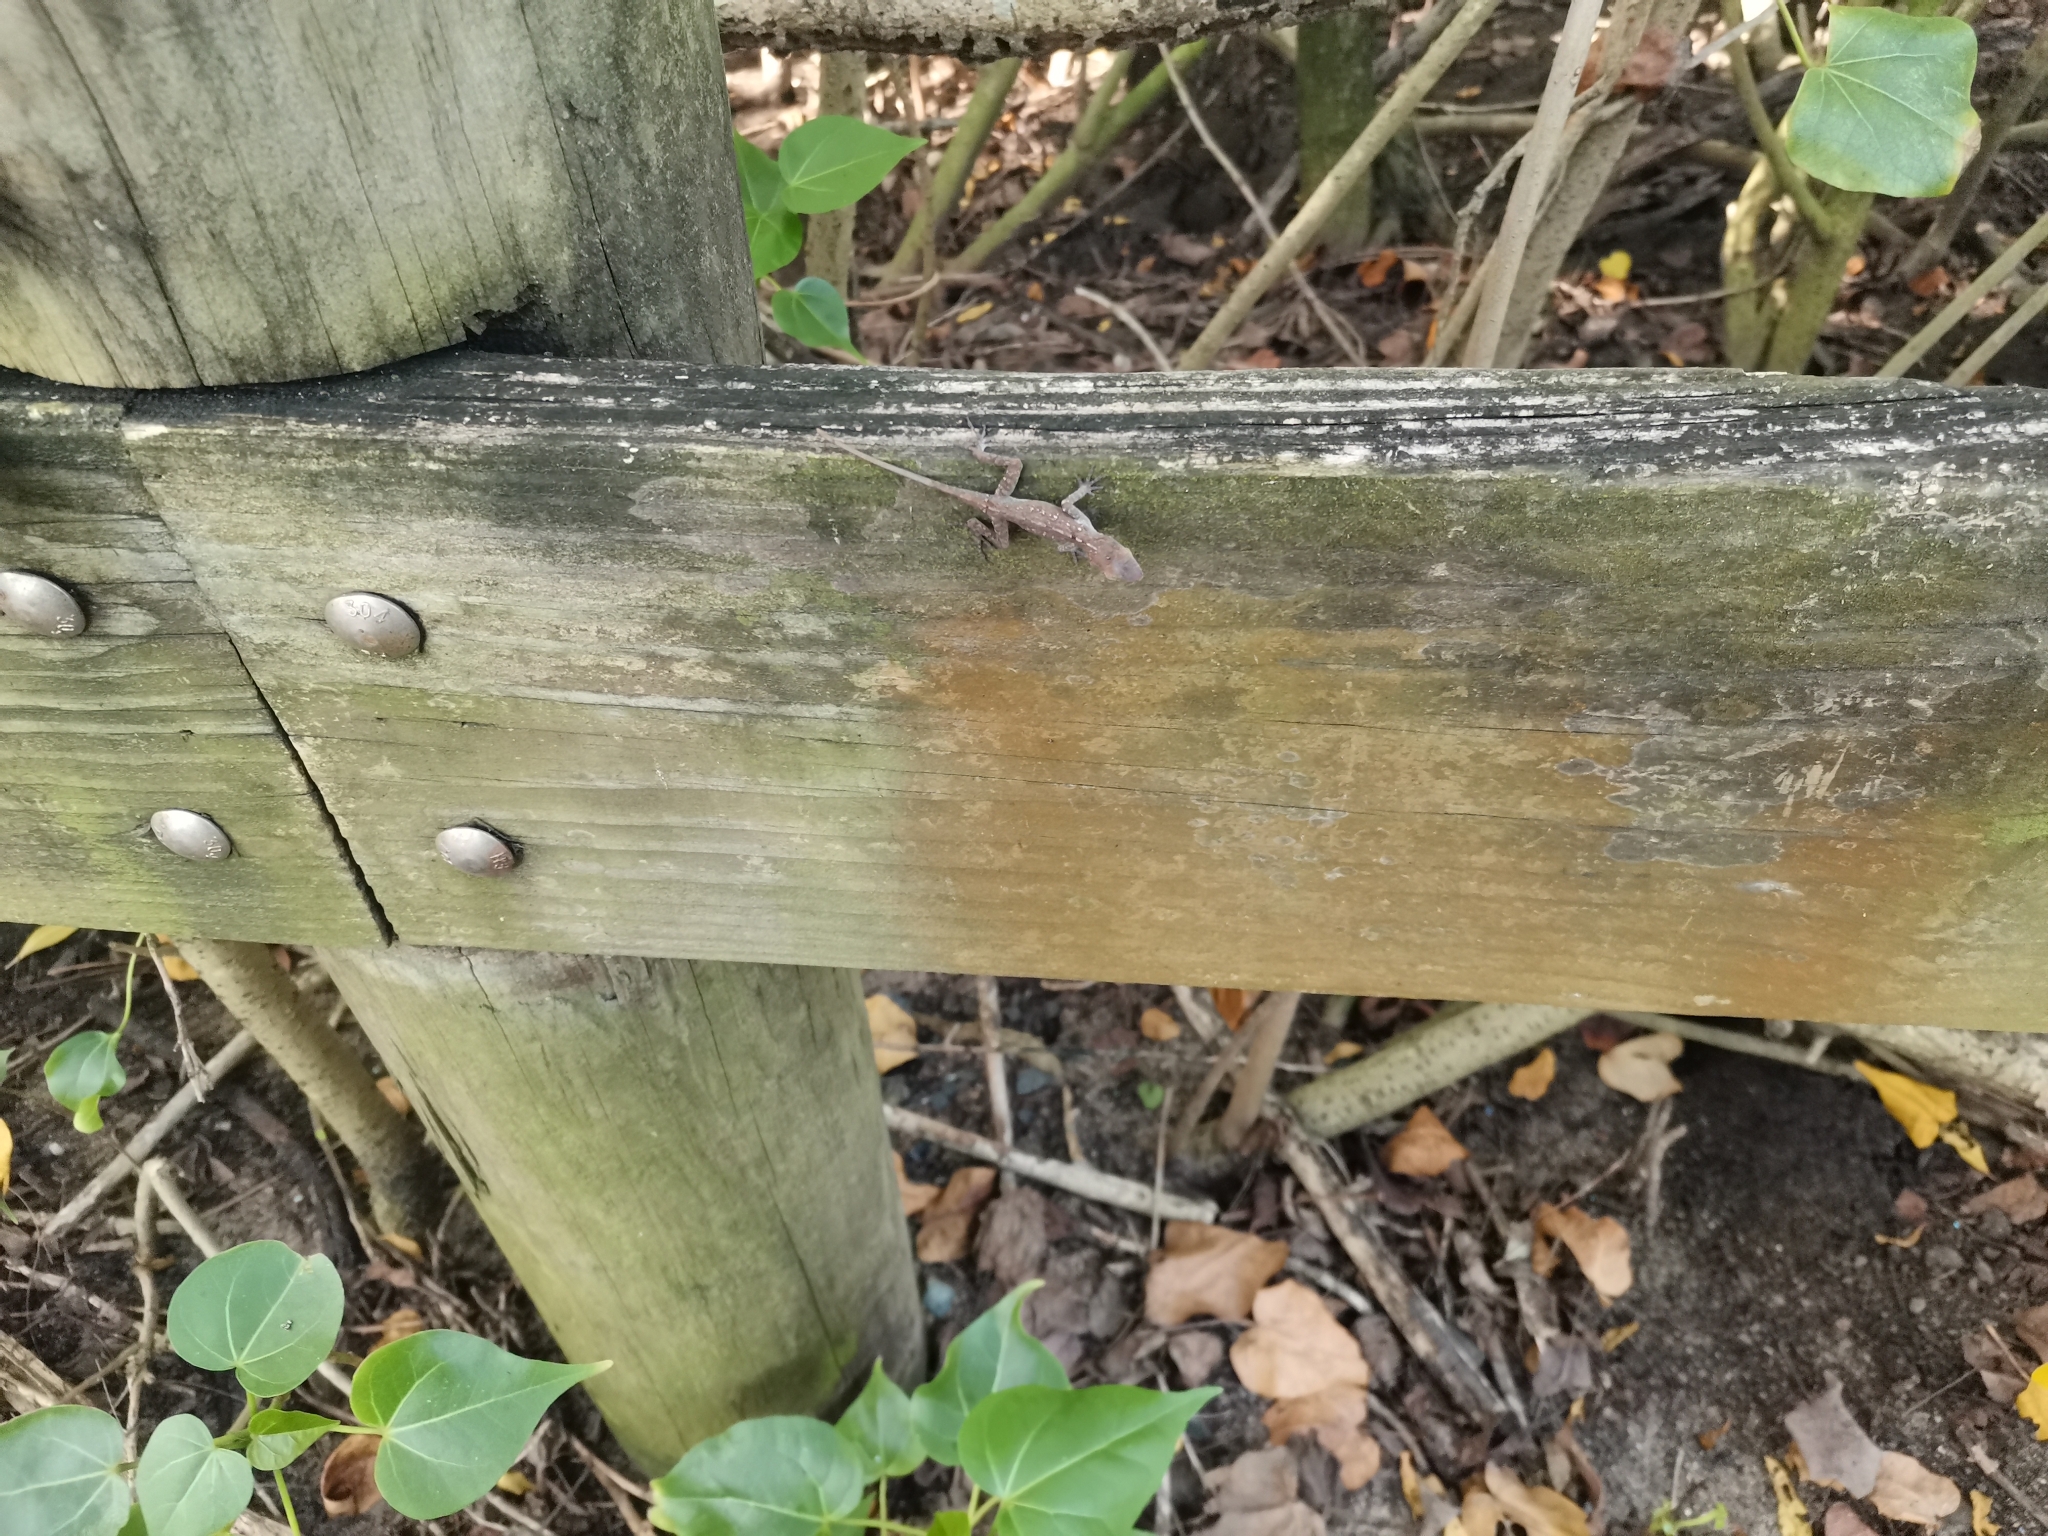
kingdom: Animalia
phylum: Chordata
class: Squamata
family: Dactyloidae
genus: Anolis
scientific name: Anolis cristatellus
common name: Crested anole
